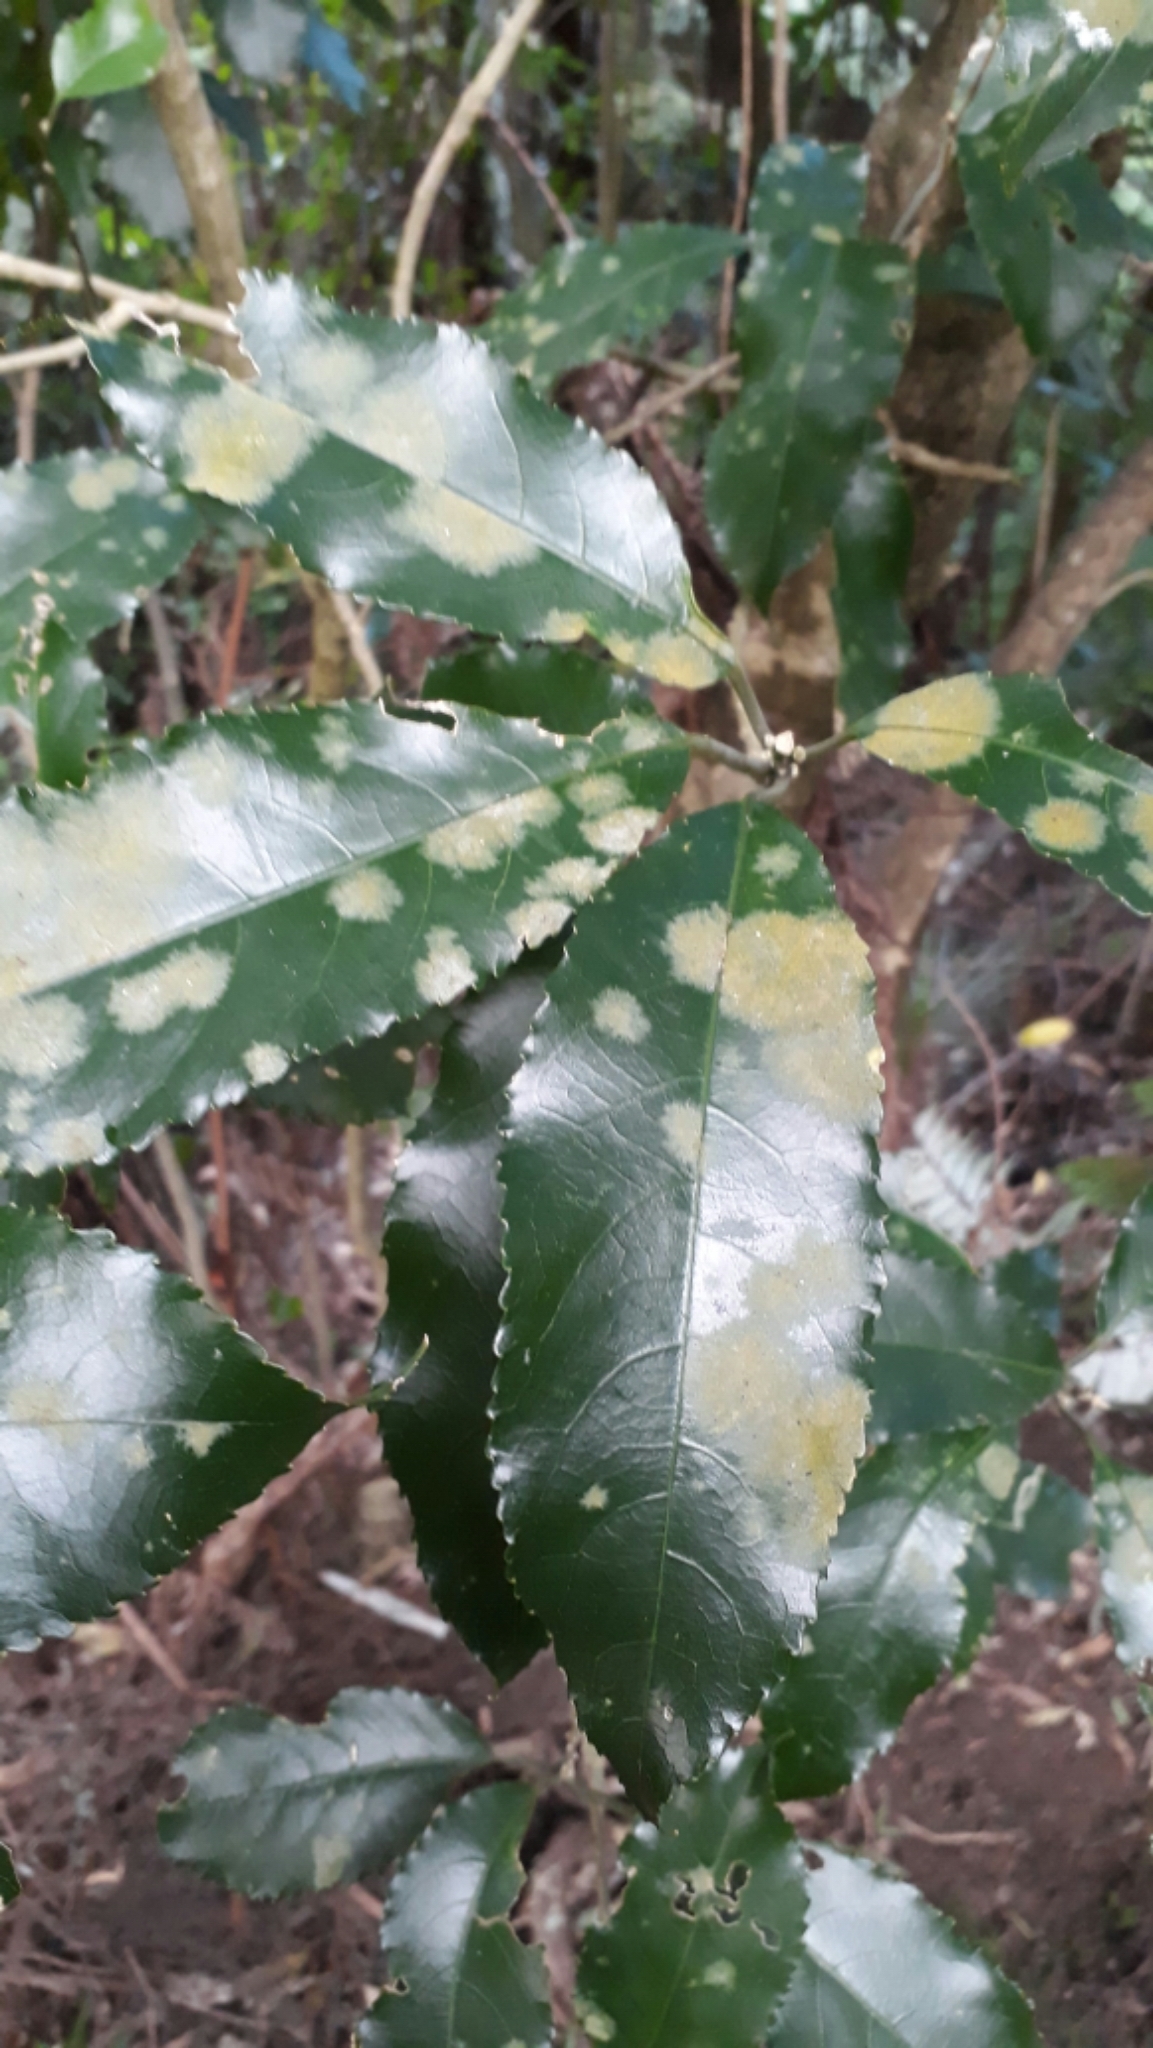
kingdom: Plantae
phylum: Chlorophyta
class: Ulvophyceae
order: Trentepohliales
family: Trentepohliaceae
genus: Cephaleuros
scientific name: Cephaleuros
